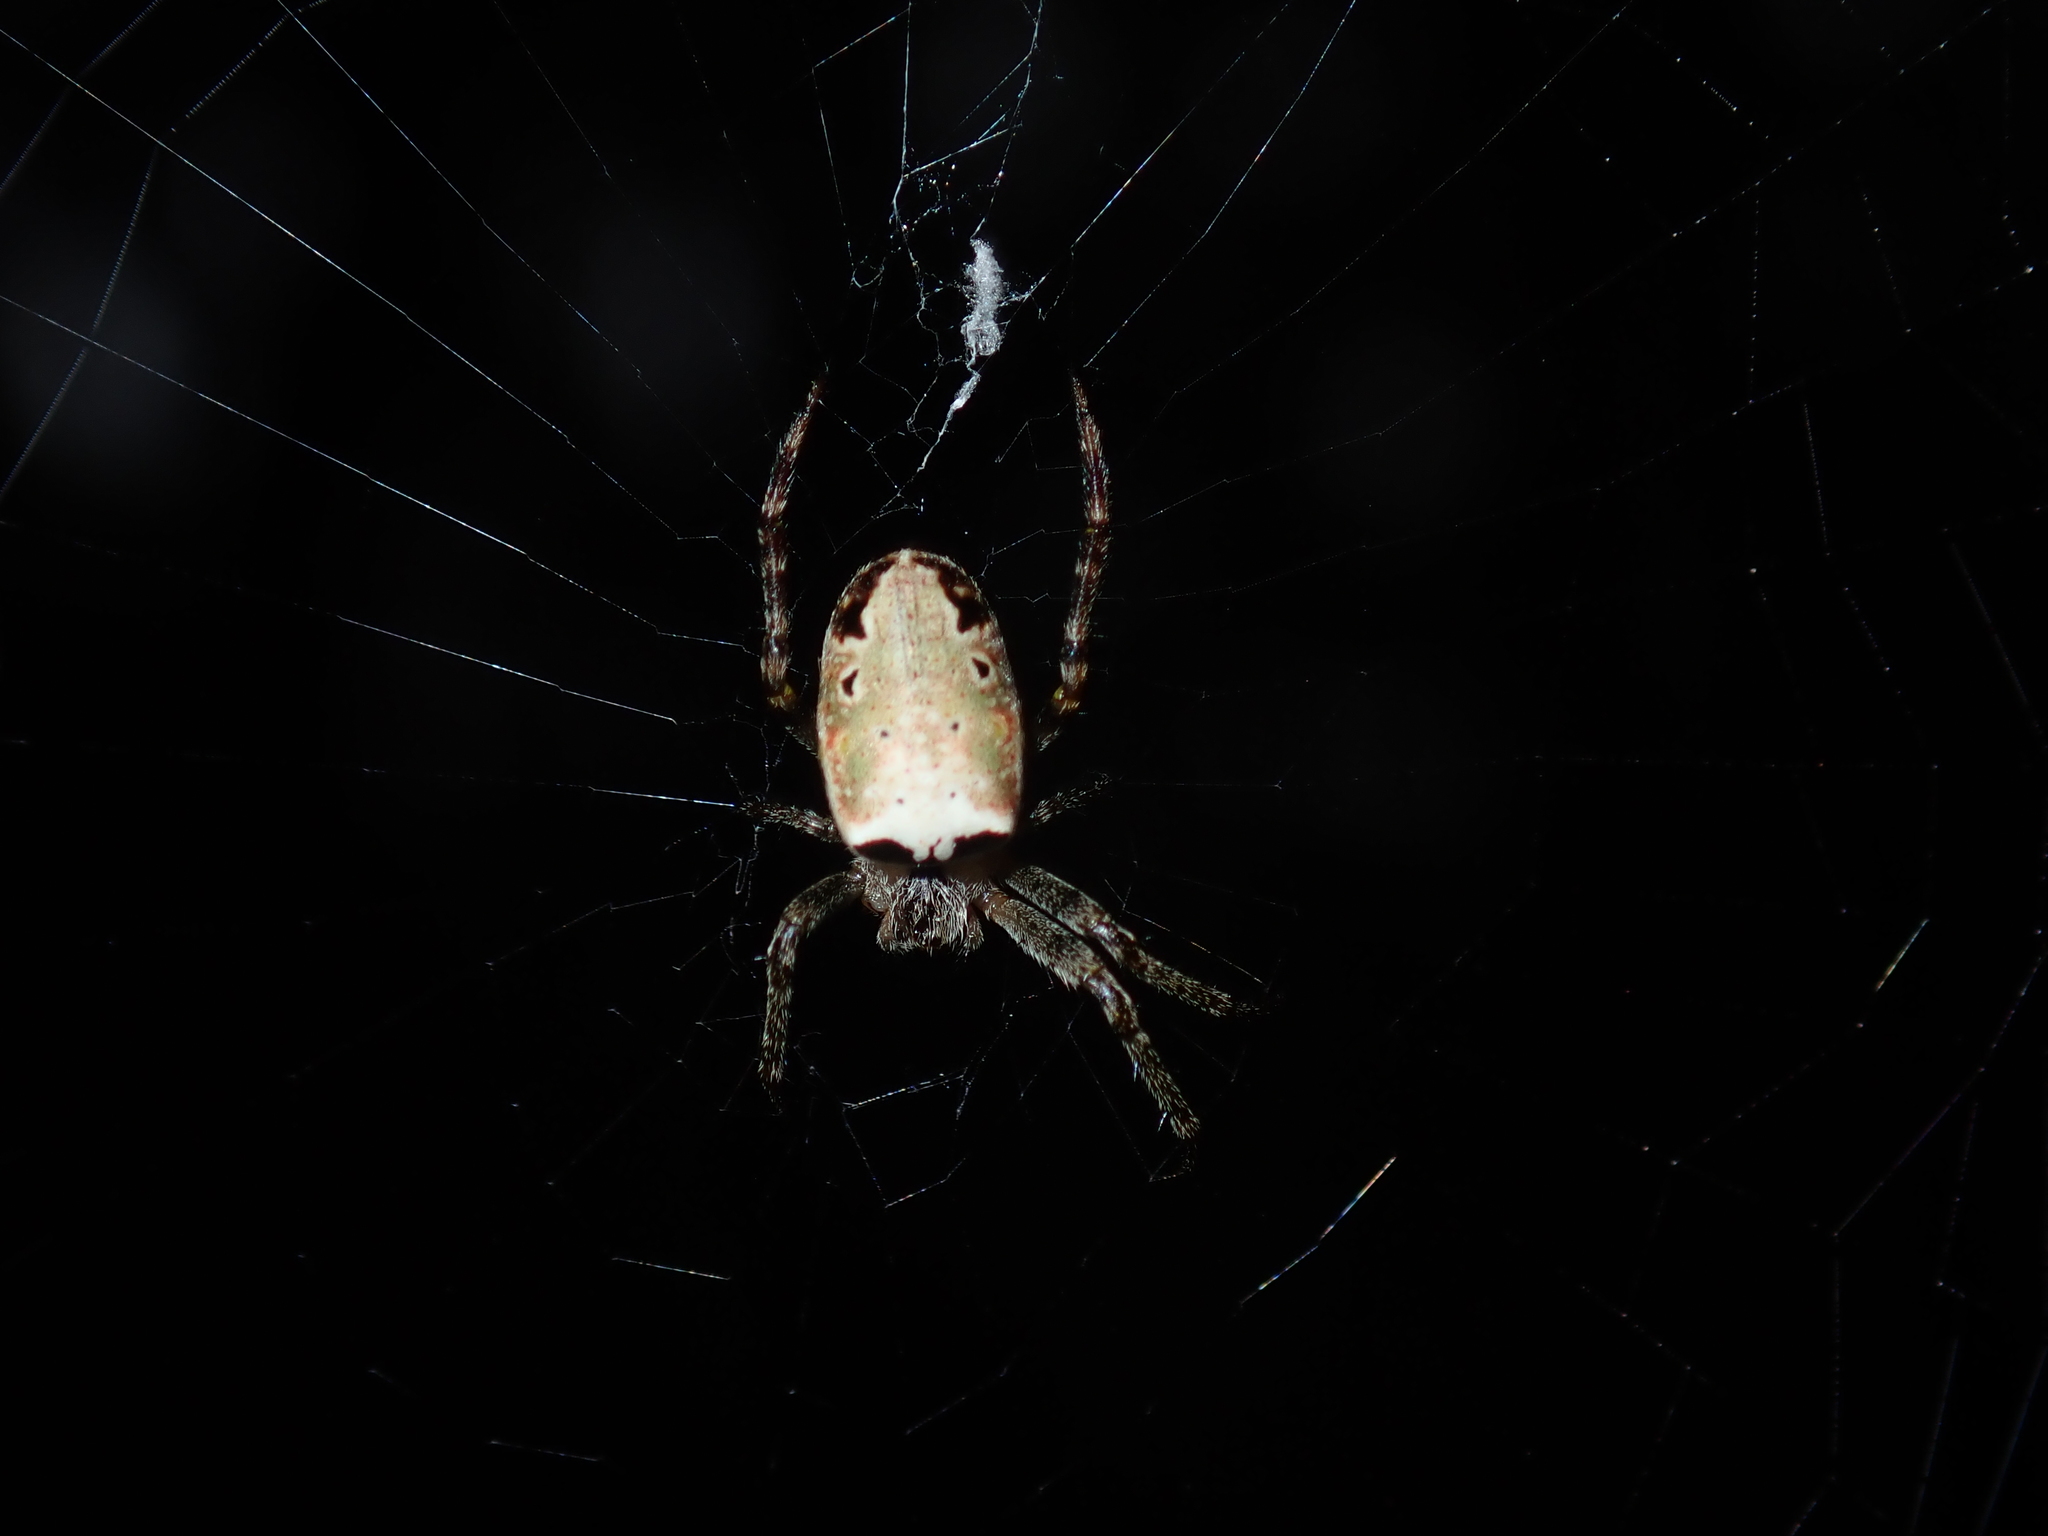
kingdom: Animalia
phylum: Arthropoda
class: Arachnida
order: Araneae
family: Araneidae
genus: Plebs
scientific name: Plebs eburnus
